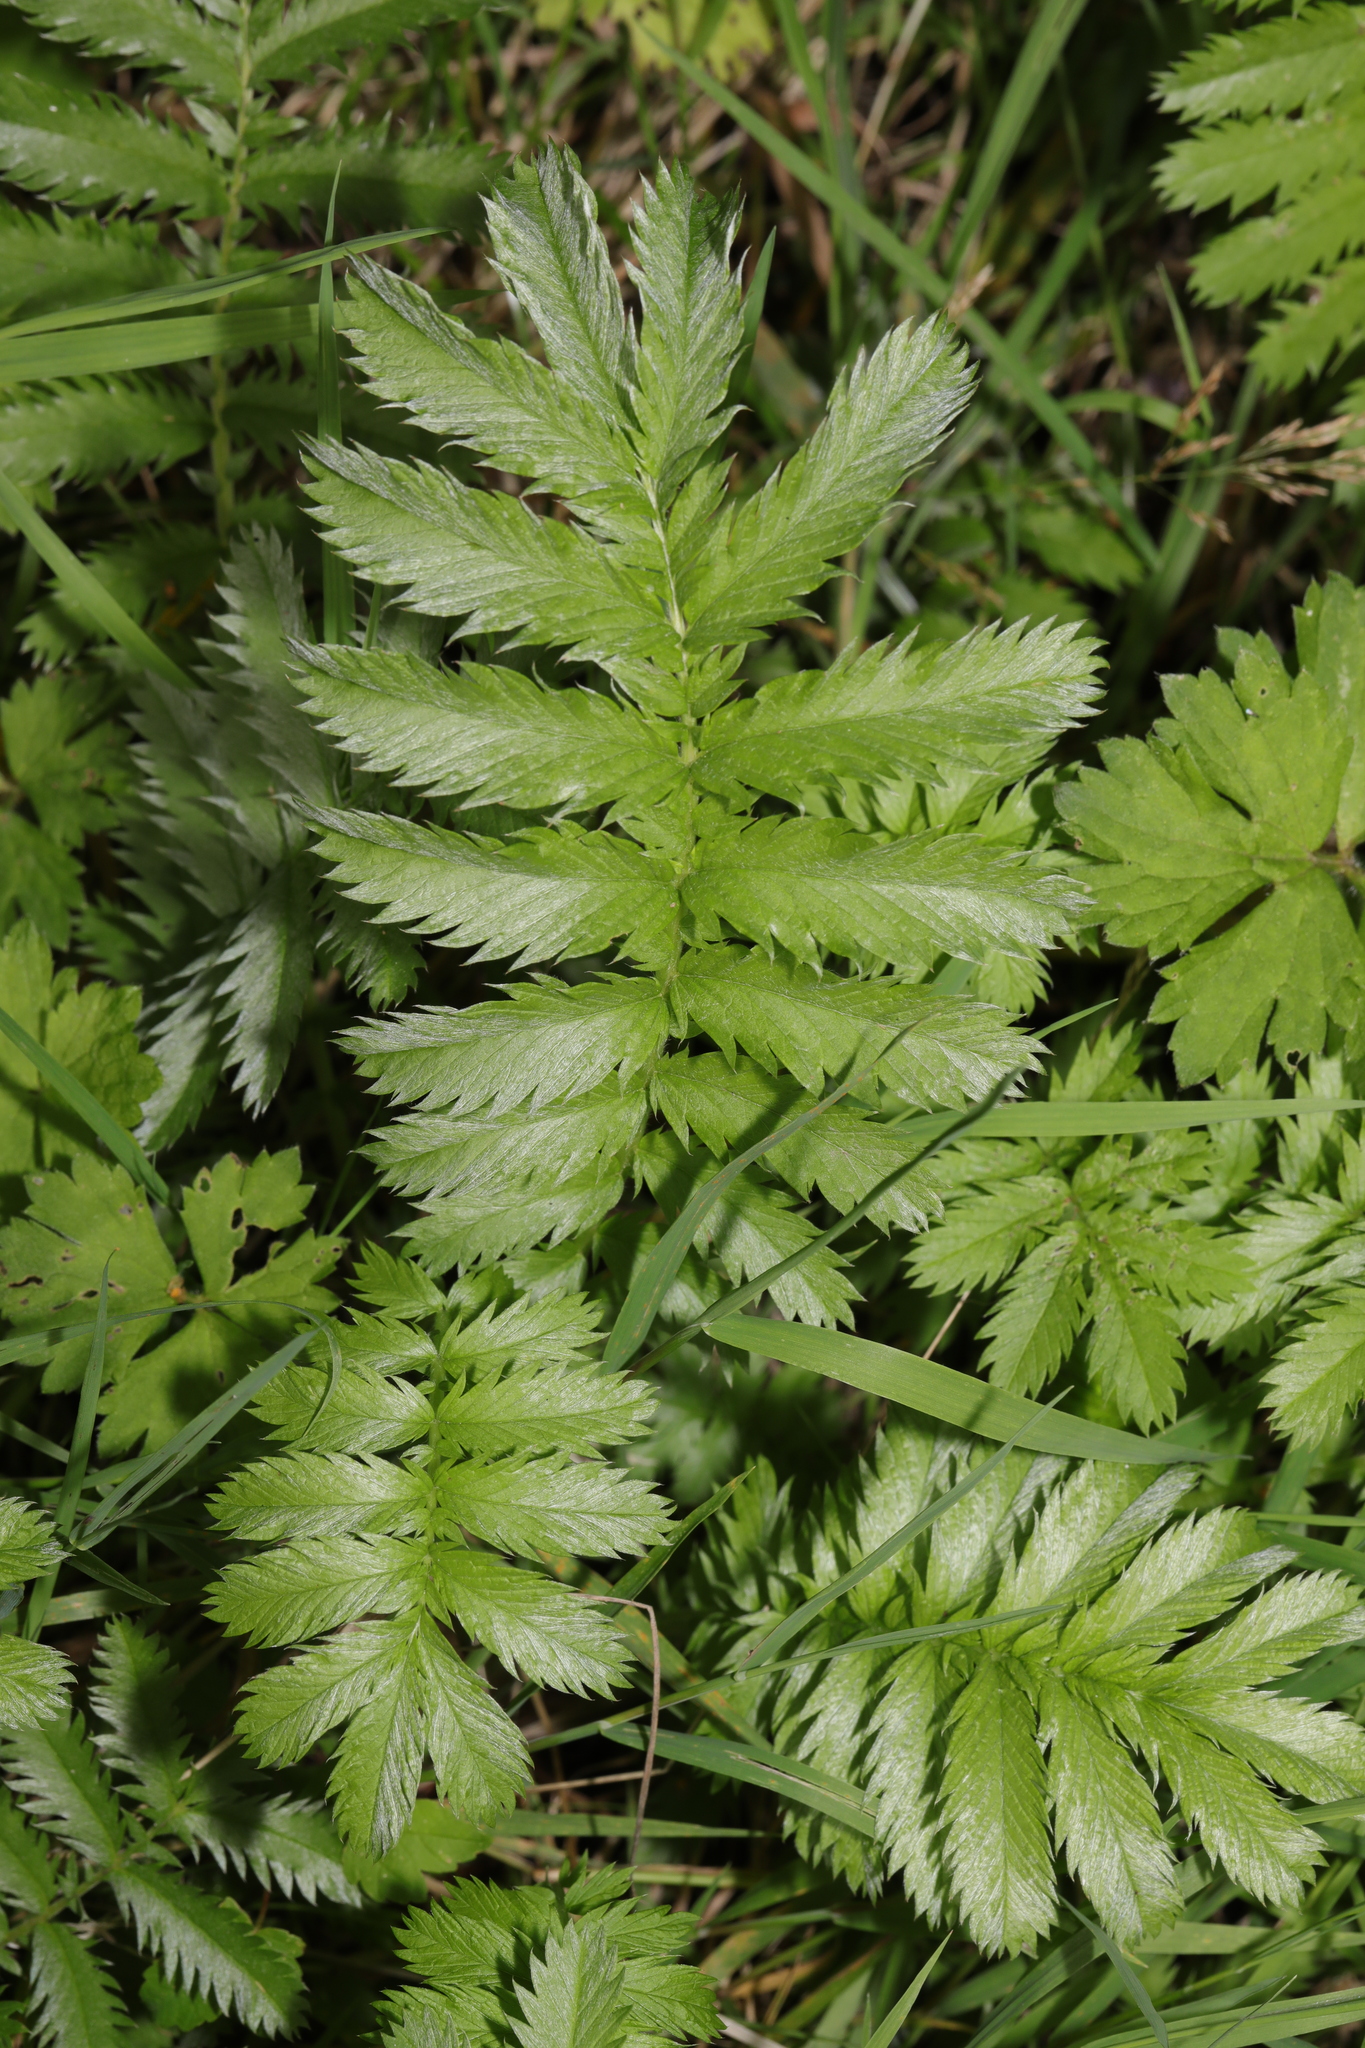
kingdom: Plantae
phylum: Tracheophyta
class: Magnoliopsida
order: Rosales
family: Rosaceae
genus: Argentina
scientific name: Argentina anserina
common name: Common silverweed
